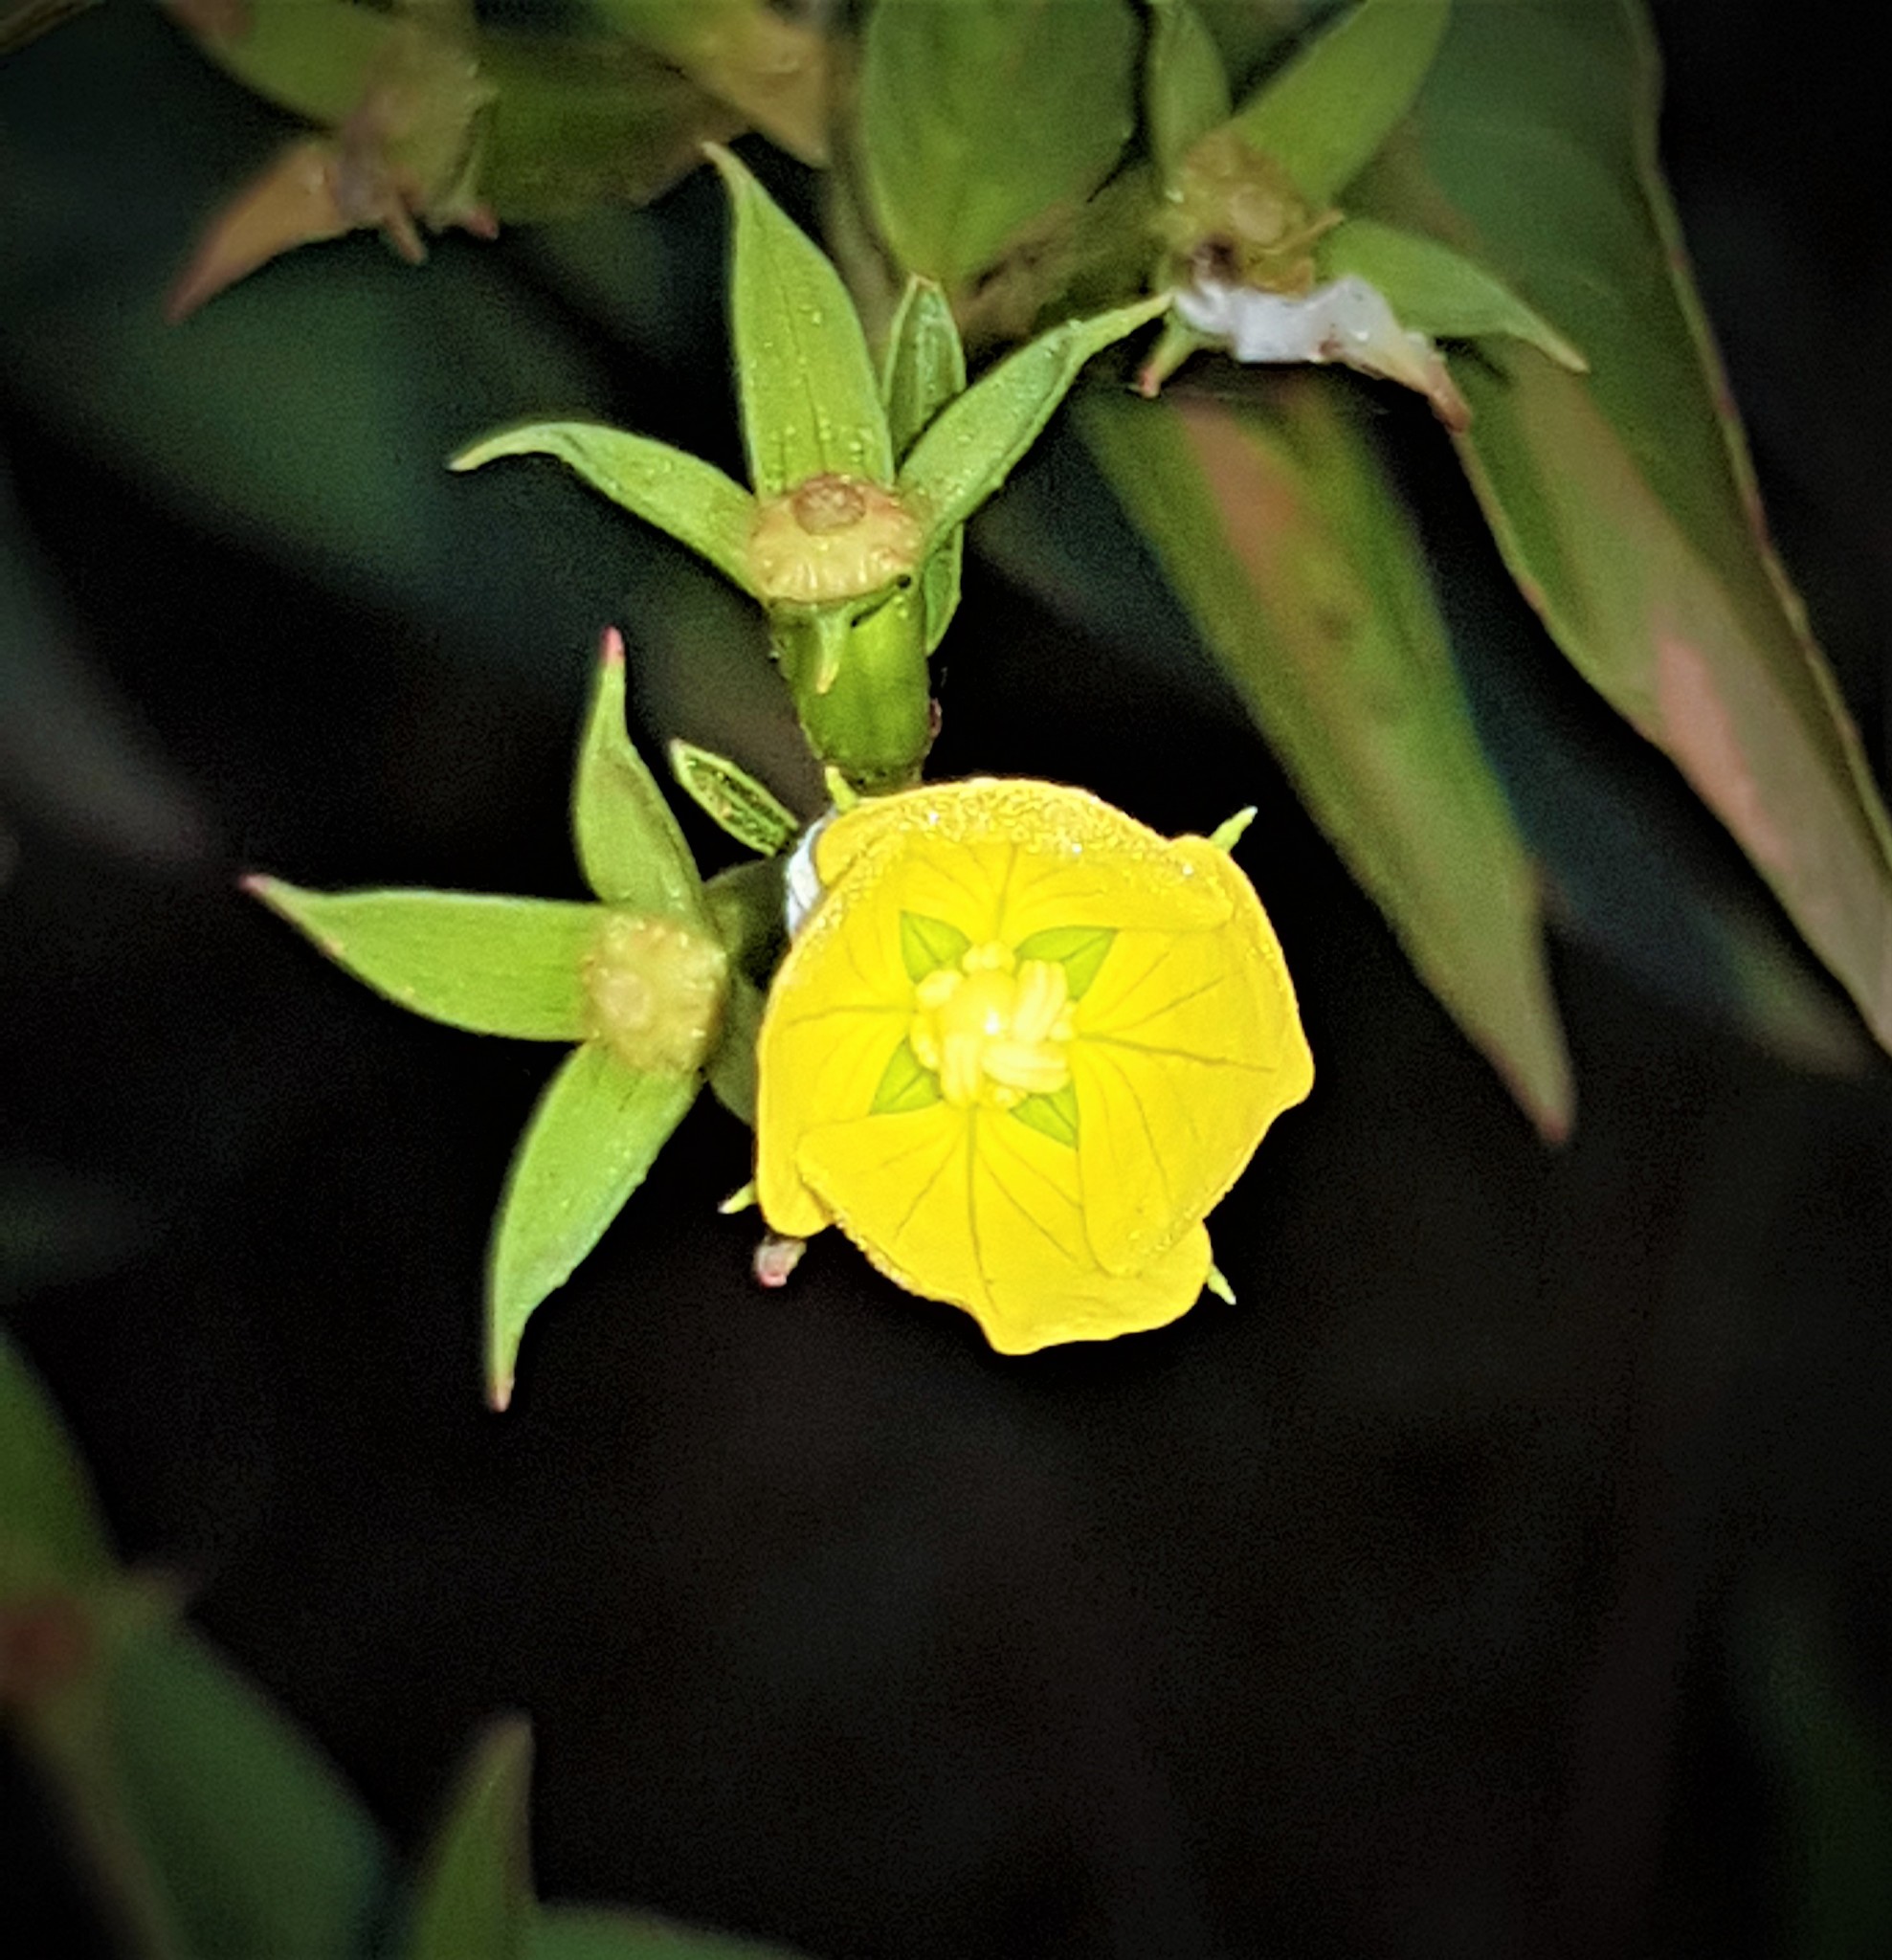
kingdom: Plantae
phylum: Tracheophyta
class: Magnoliopsida
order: Myrtales
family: Onagraceae
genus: Ludwigia
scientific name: Ludwigia nervosa
